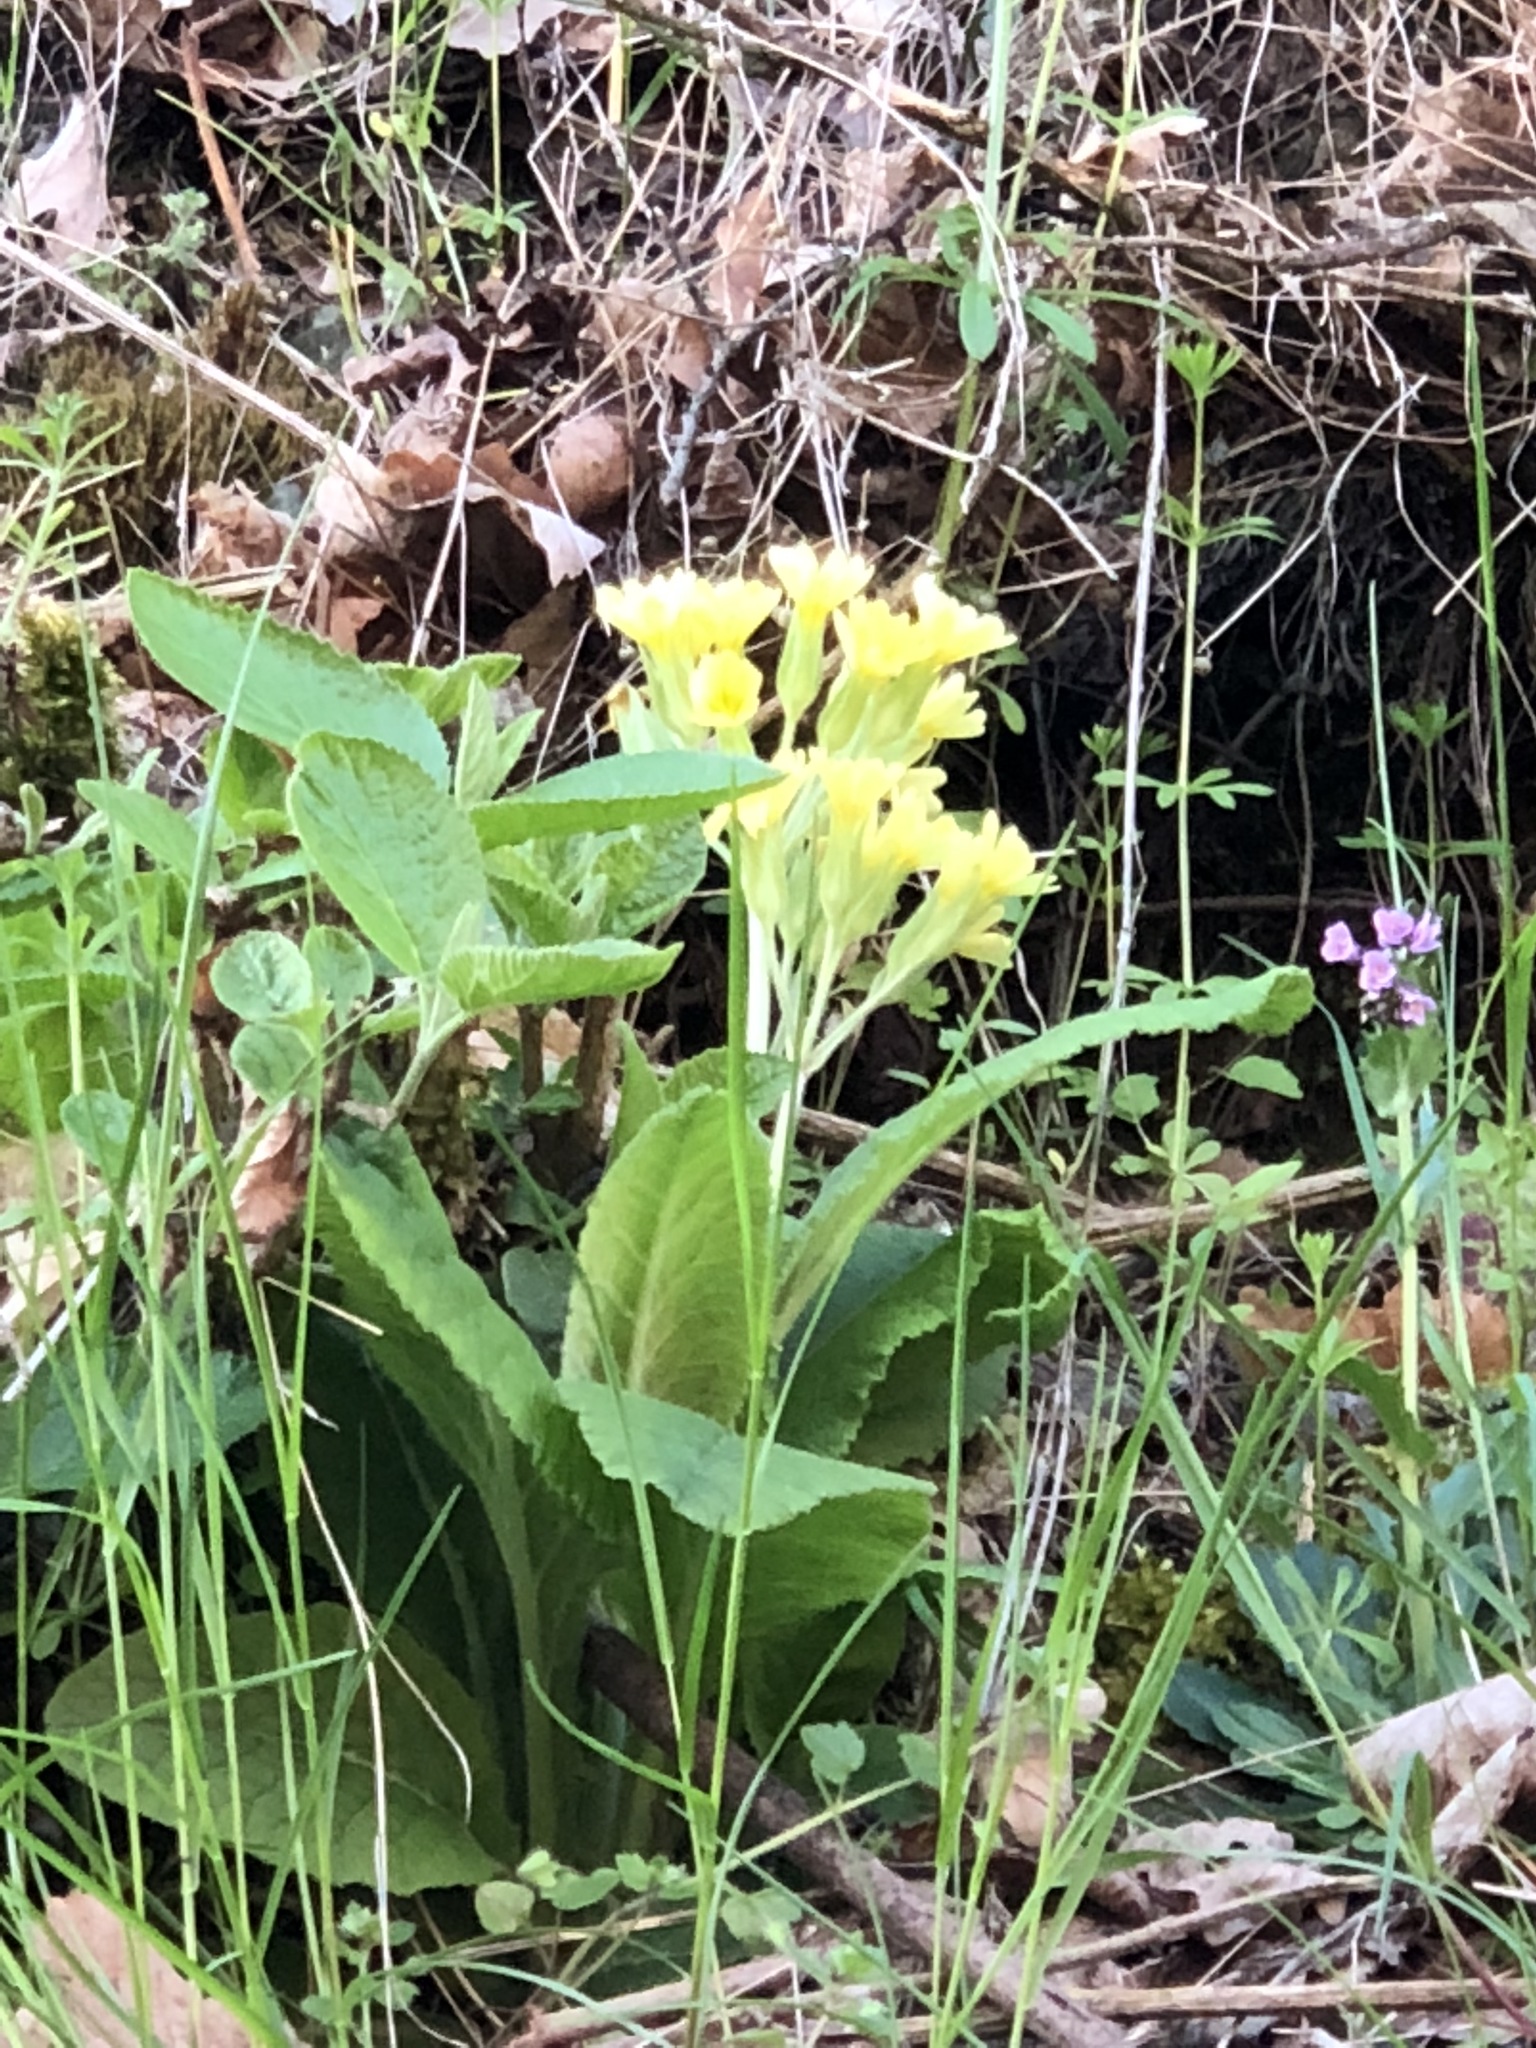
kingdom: Plantae
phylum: Tracheophyta
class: Magnoliopsida
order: Ericales
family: Primulaceae
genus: Primula
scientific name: Primula polyantha
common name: False oxlip
